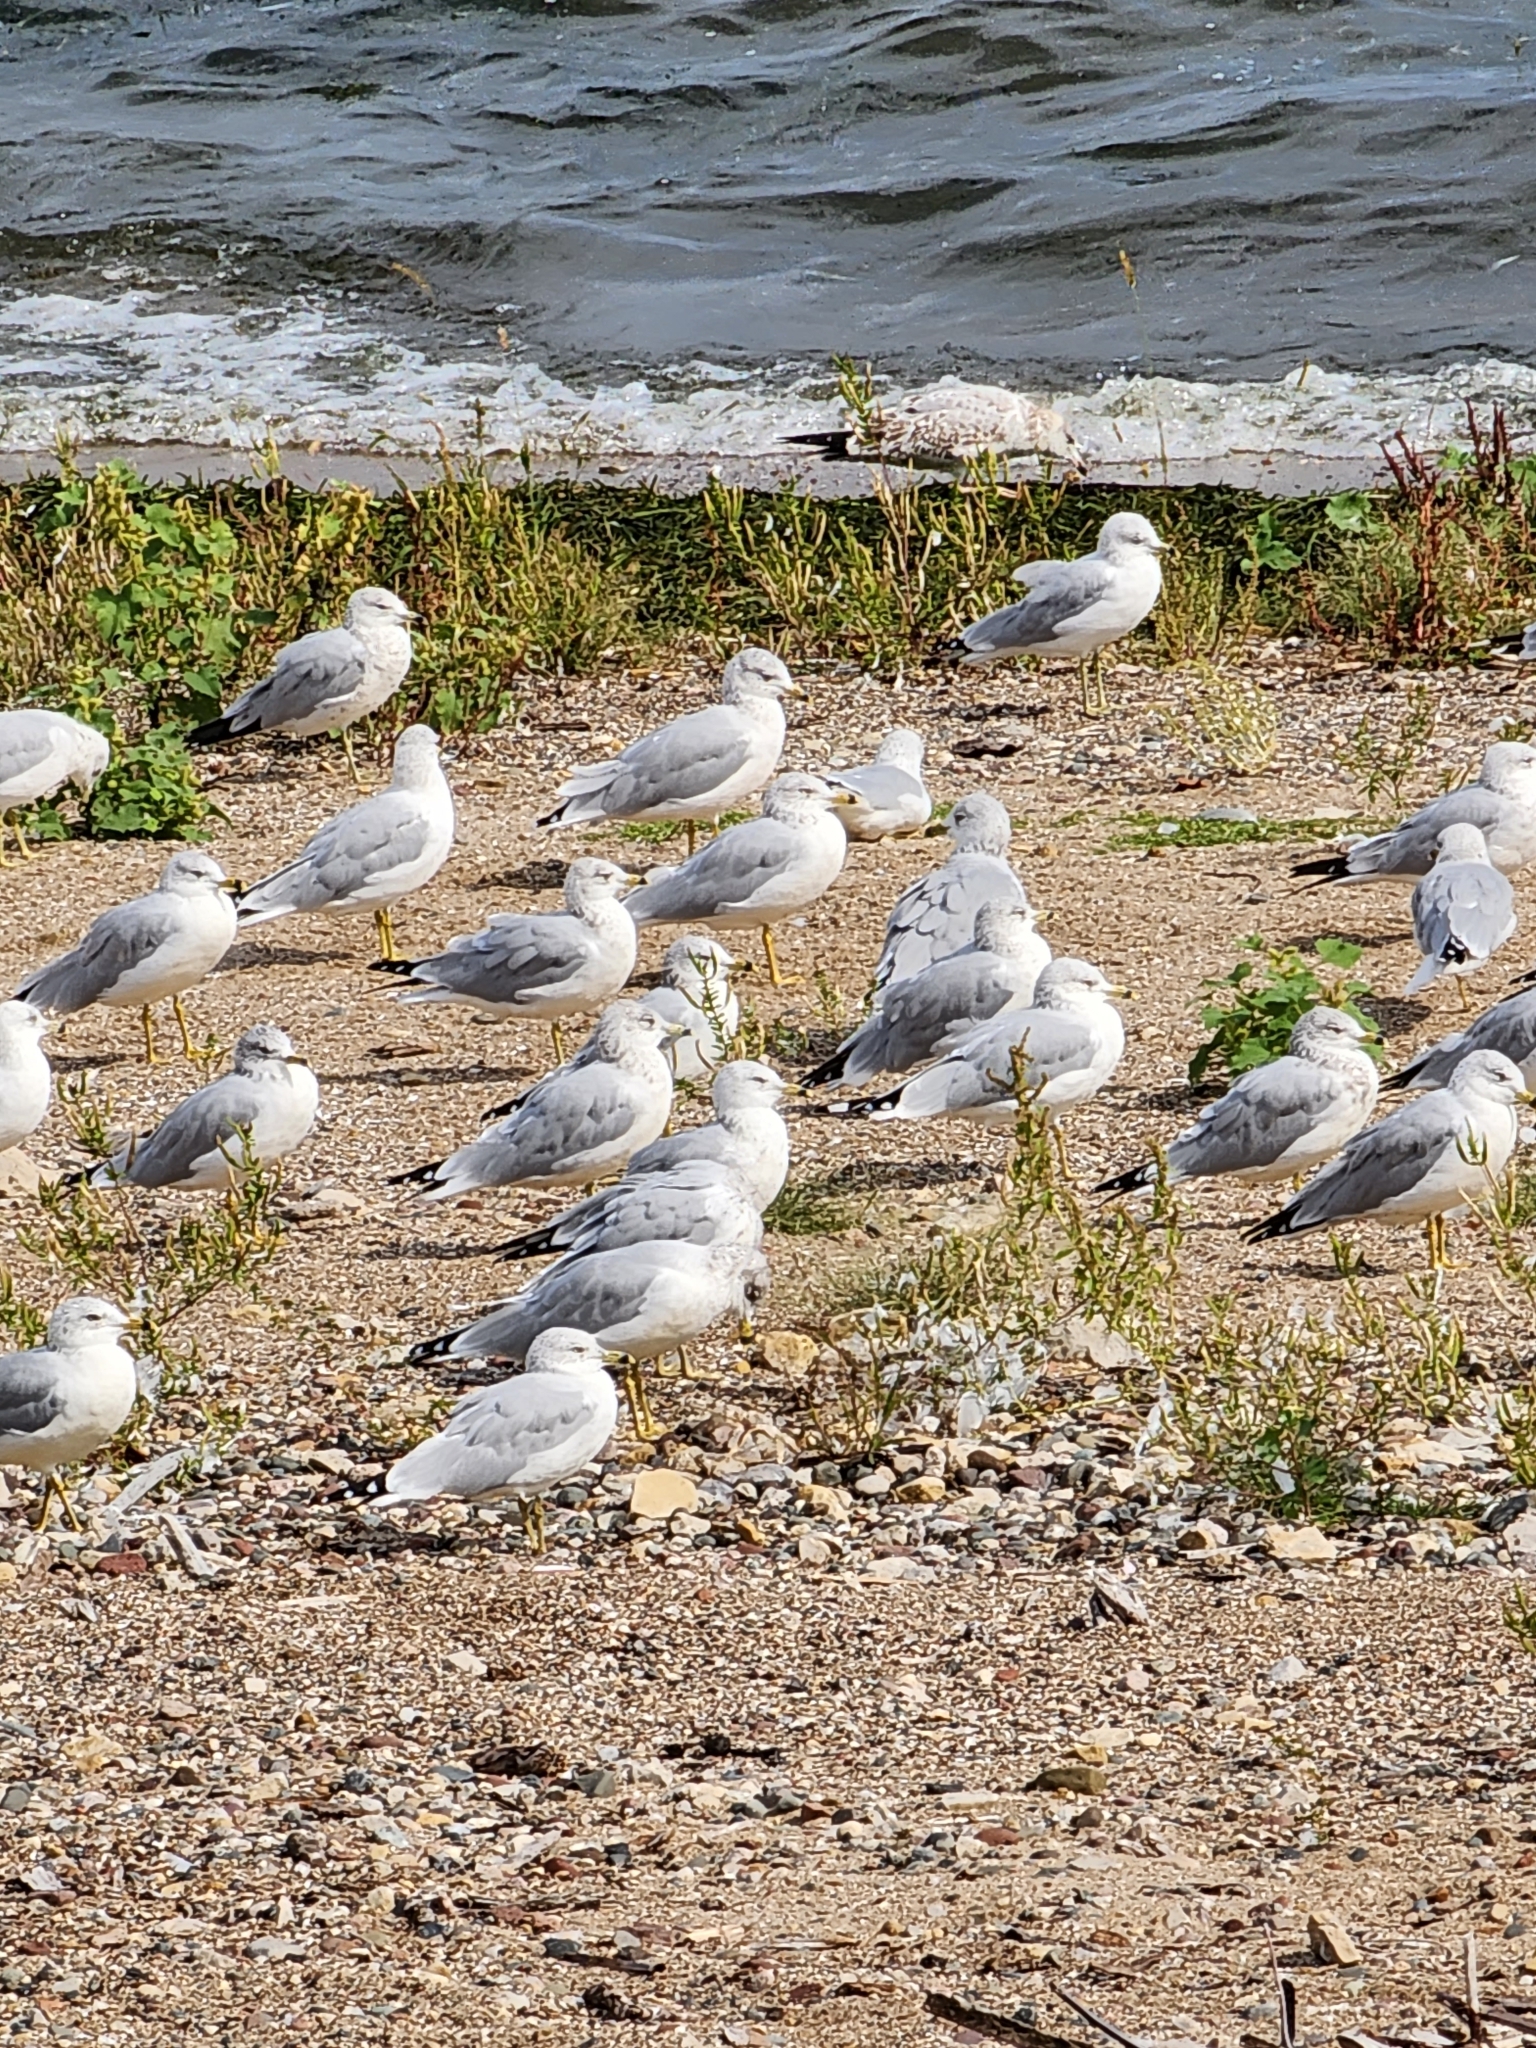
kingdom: Animalia
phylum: Chordata
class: Aves
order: Charadriiformes
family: Laridae
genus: Larus
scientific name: Larus delawarensis
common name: Ring-billed gull
